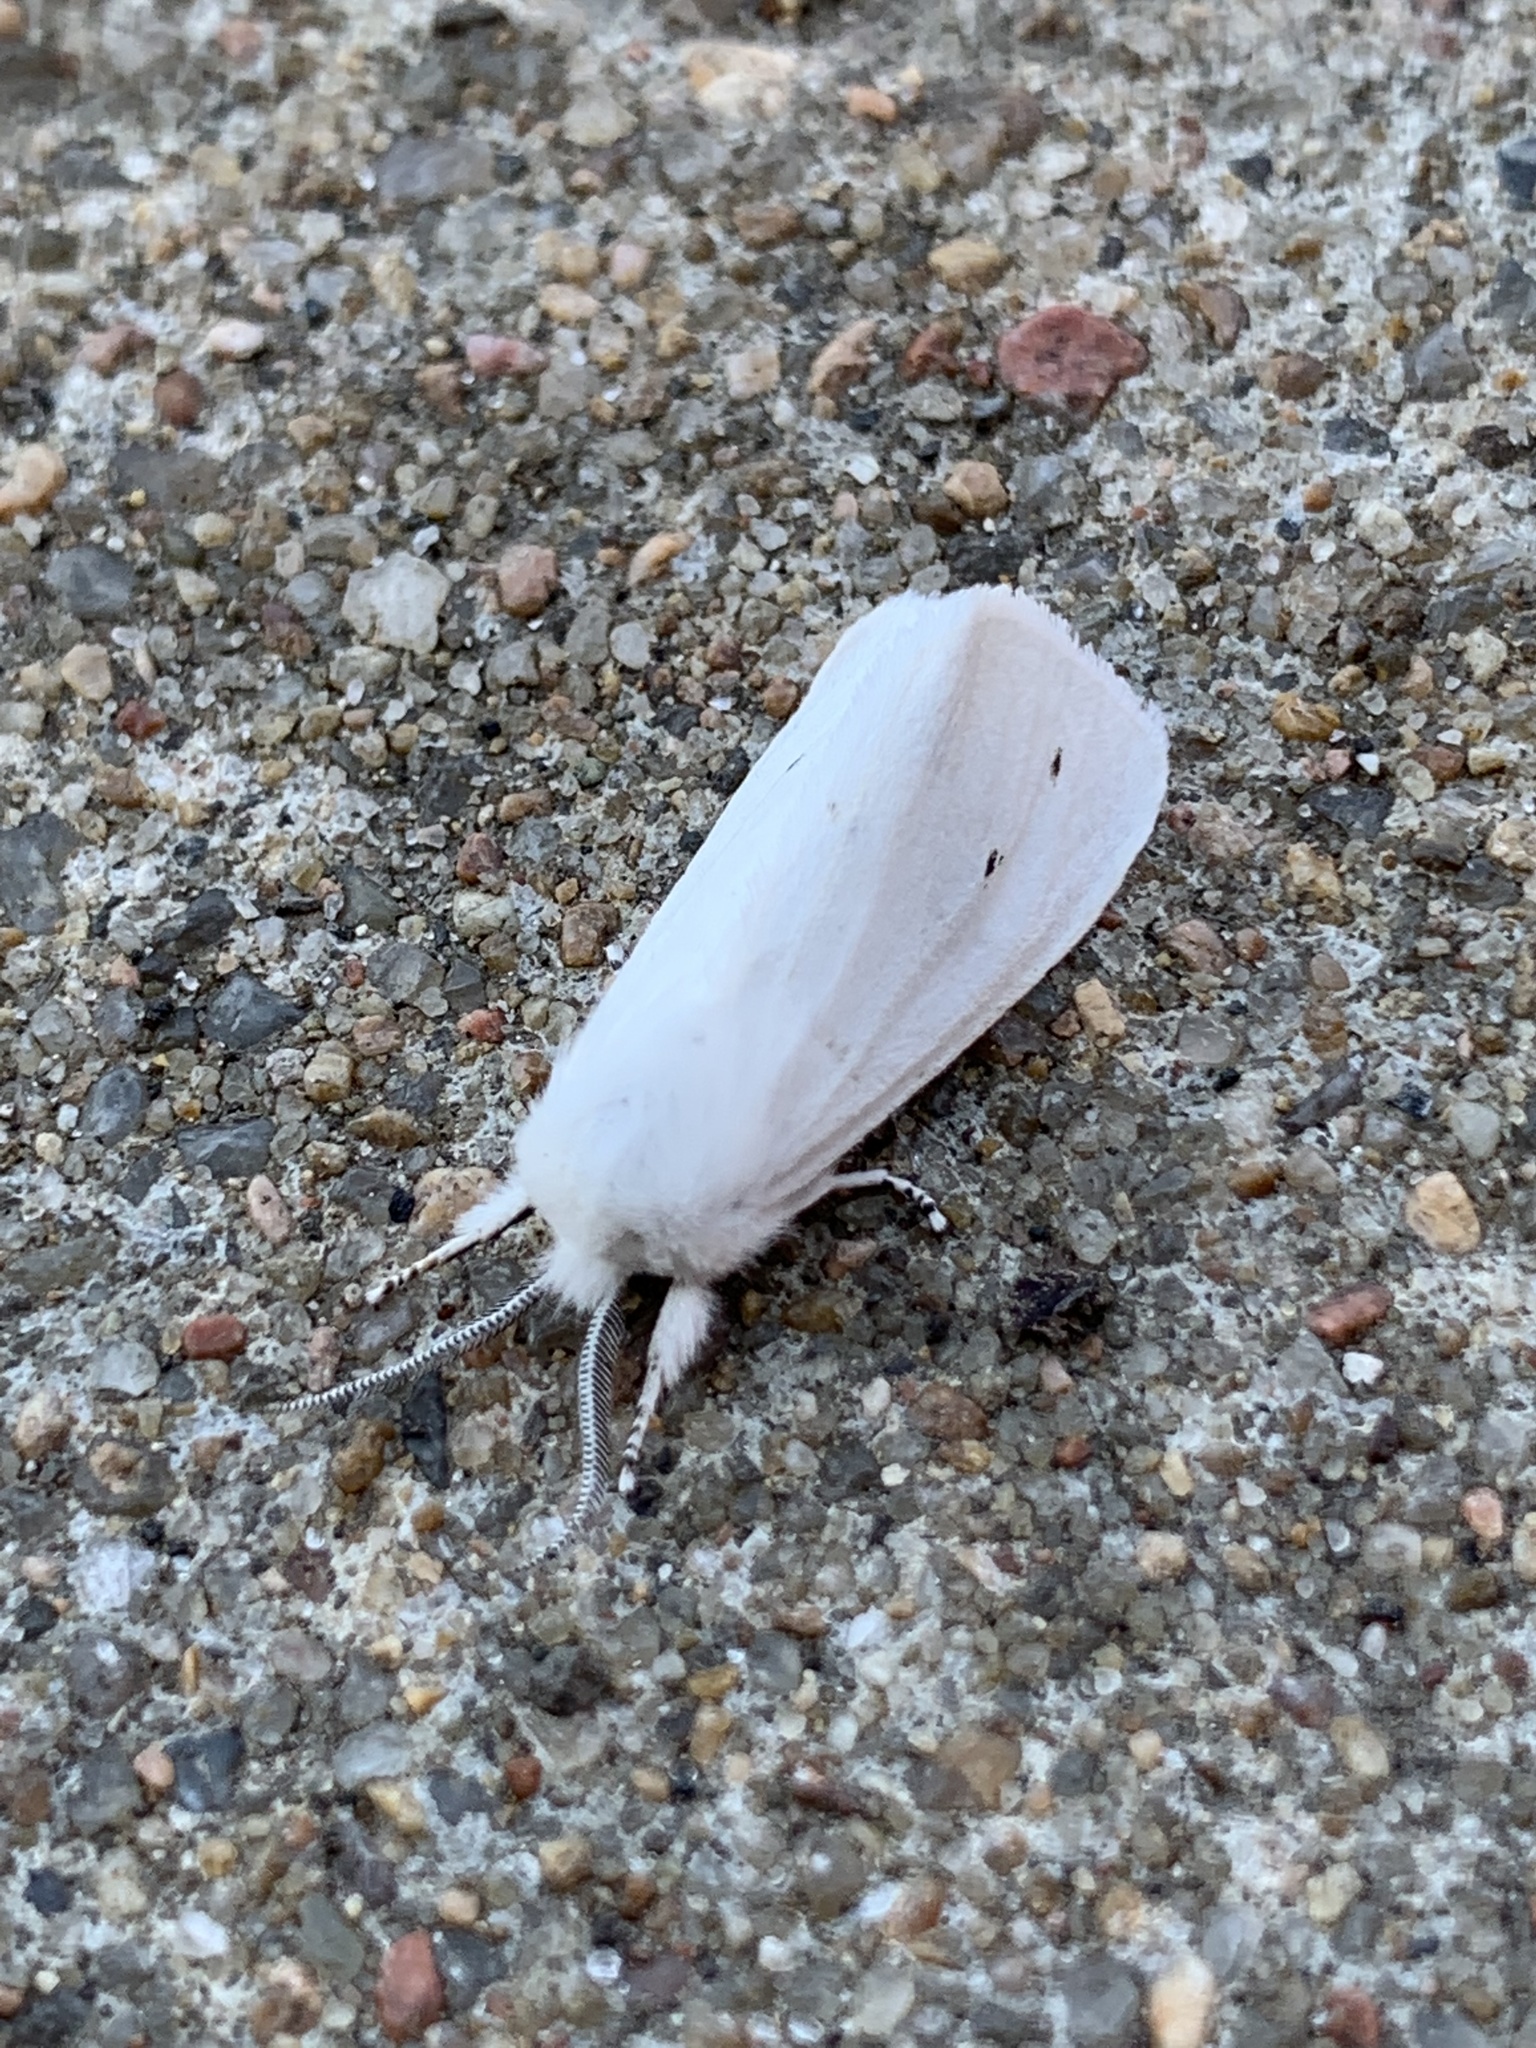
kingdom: Animalia
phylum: Arthropoda
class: Insecta
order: Lepidoptera
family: Erebidae
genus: Spilosoma
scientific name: Spilosoma virginica
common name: Virginia tiger moth
